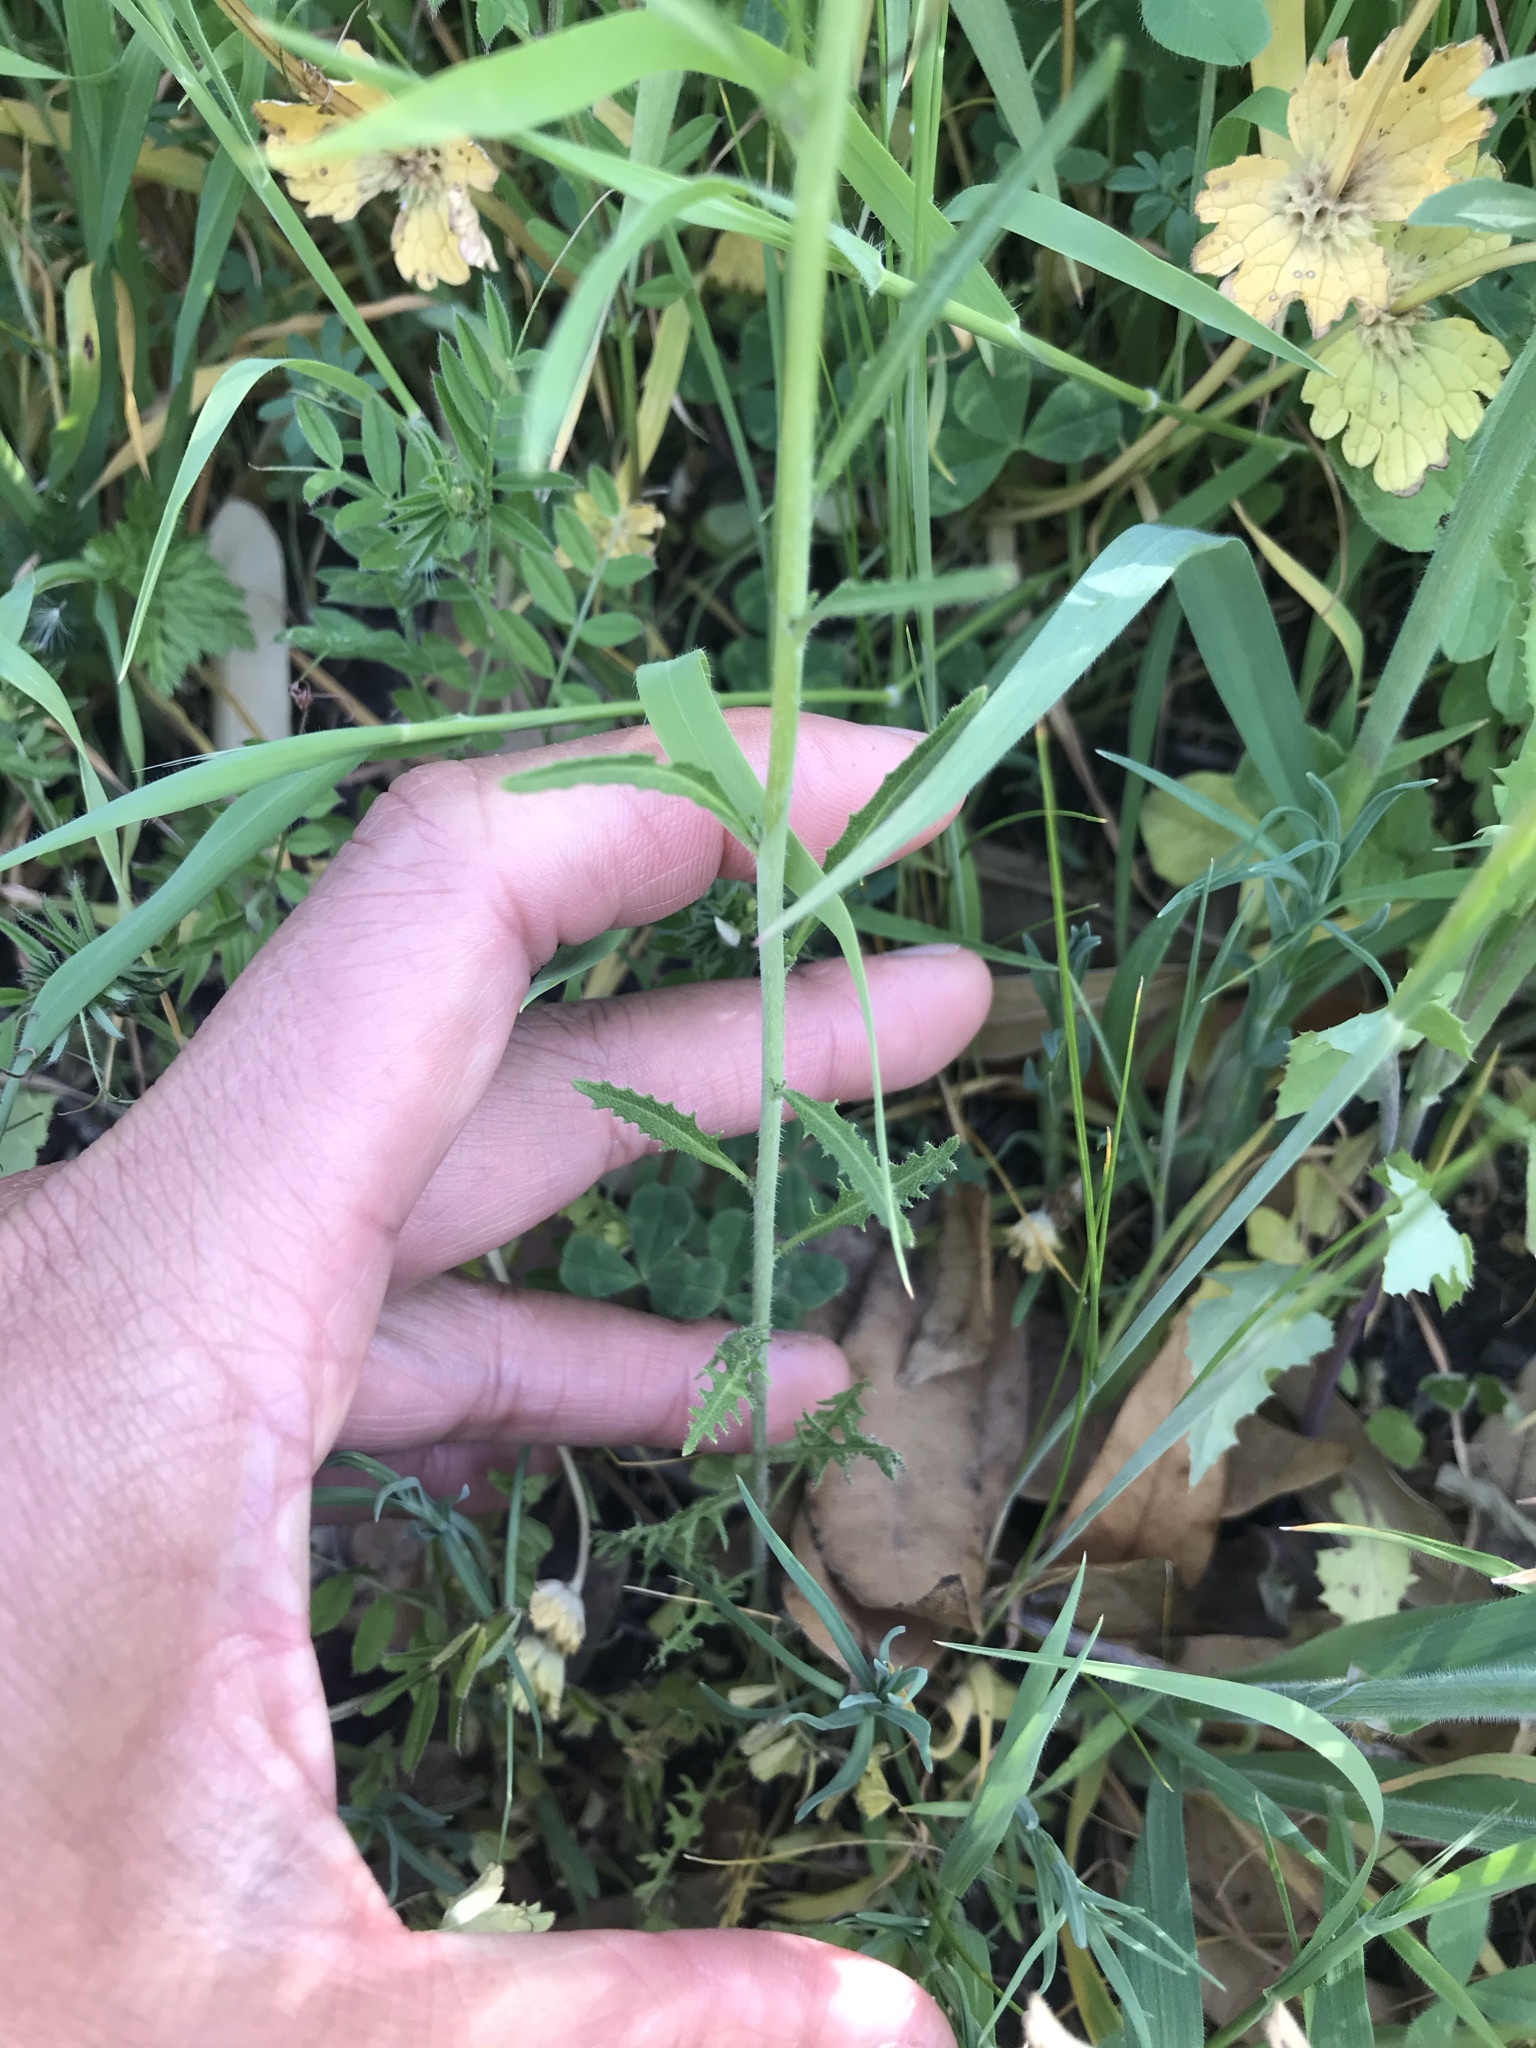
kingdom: Plantae
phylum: Tracheophyta
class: Magnoliopsida
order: Brassicales
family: Brassicaceae
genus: Streptanthus
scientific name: Streptanthus lasiophyllus
